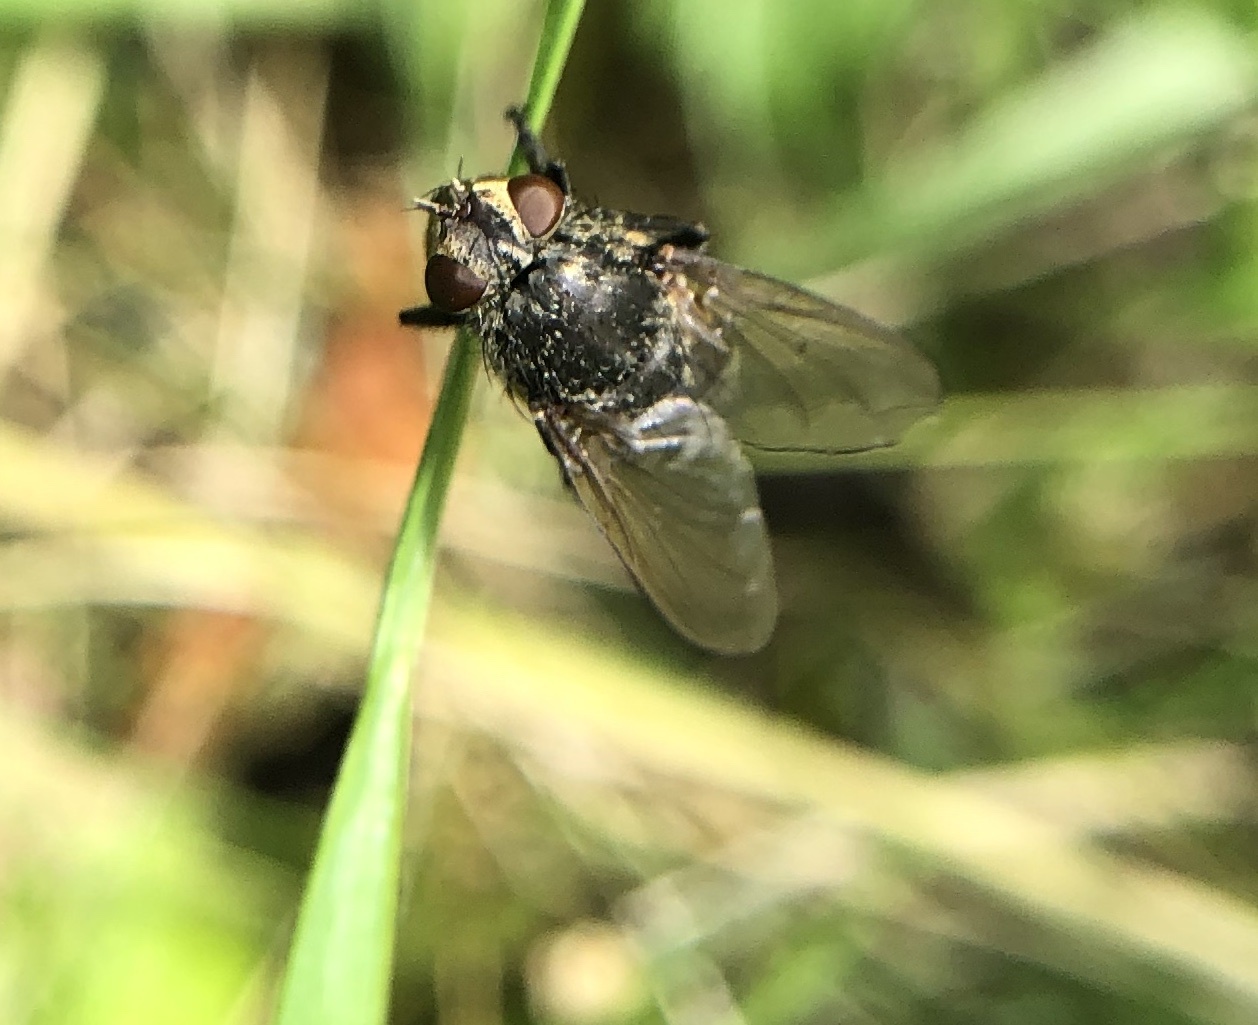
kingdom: Animalia
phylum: Arthropoda
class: Insecta
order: Diptera
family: Polleniidae
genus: Pollenia
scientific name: Pollenia
